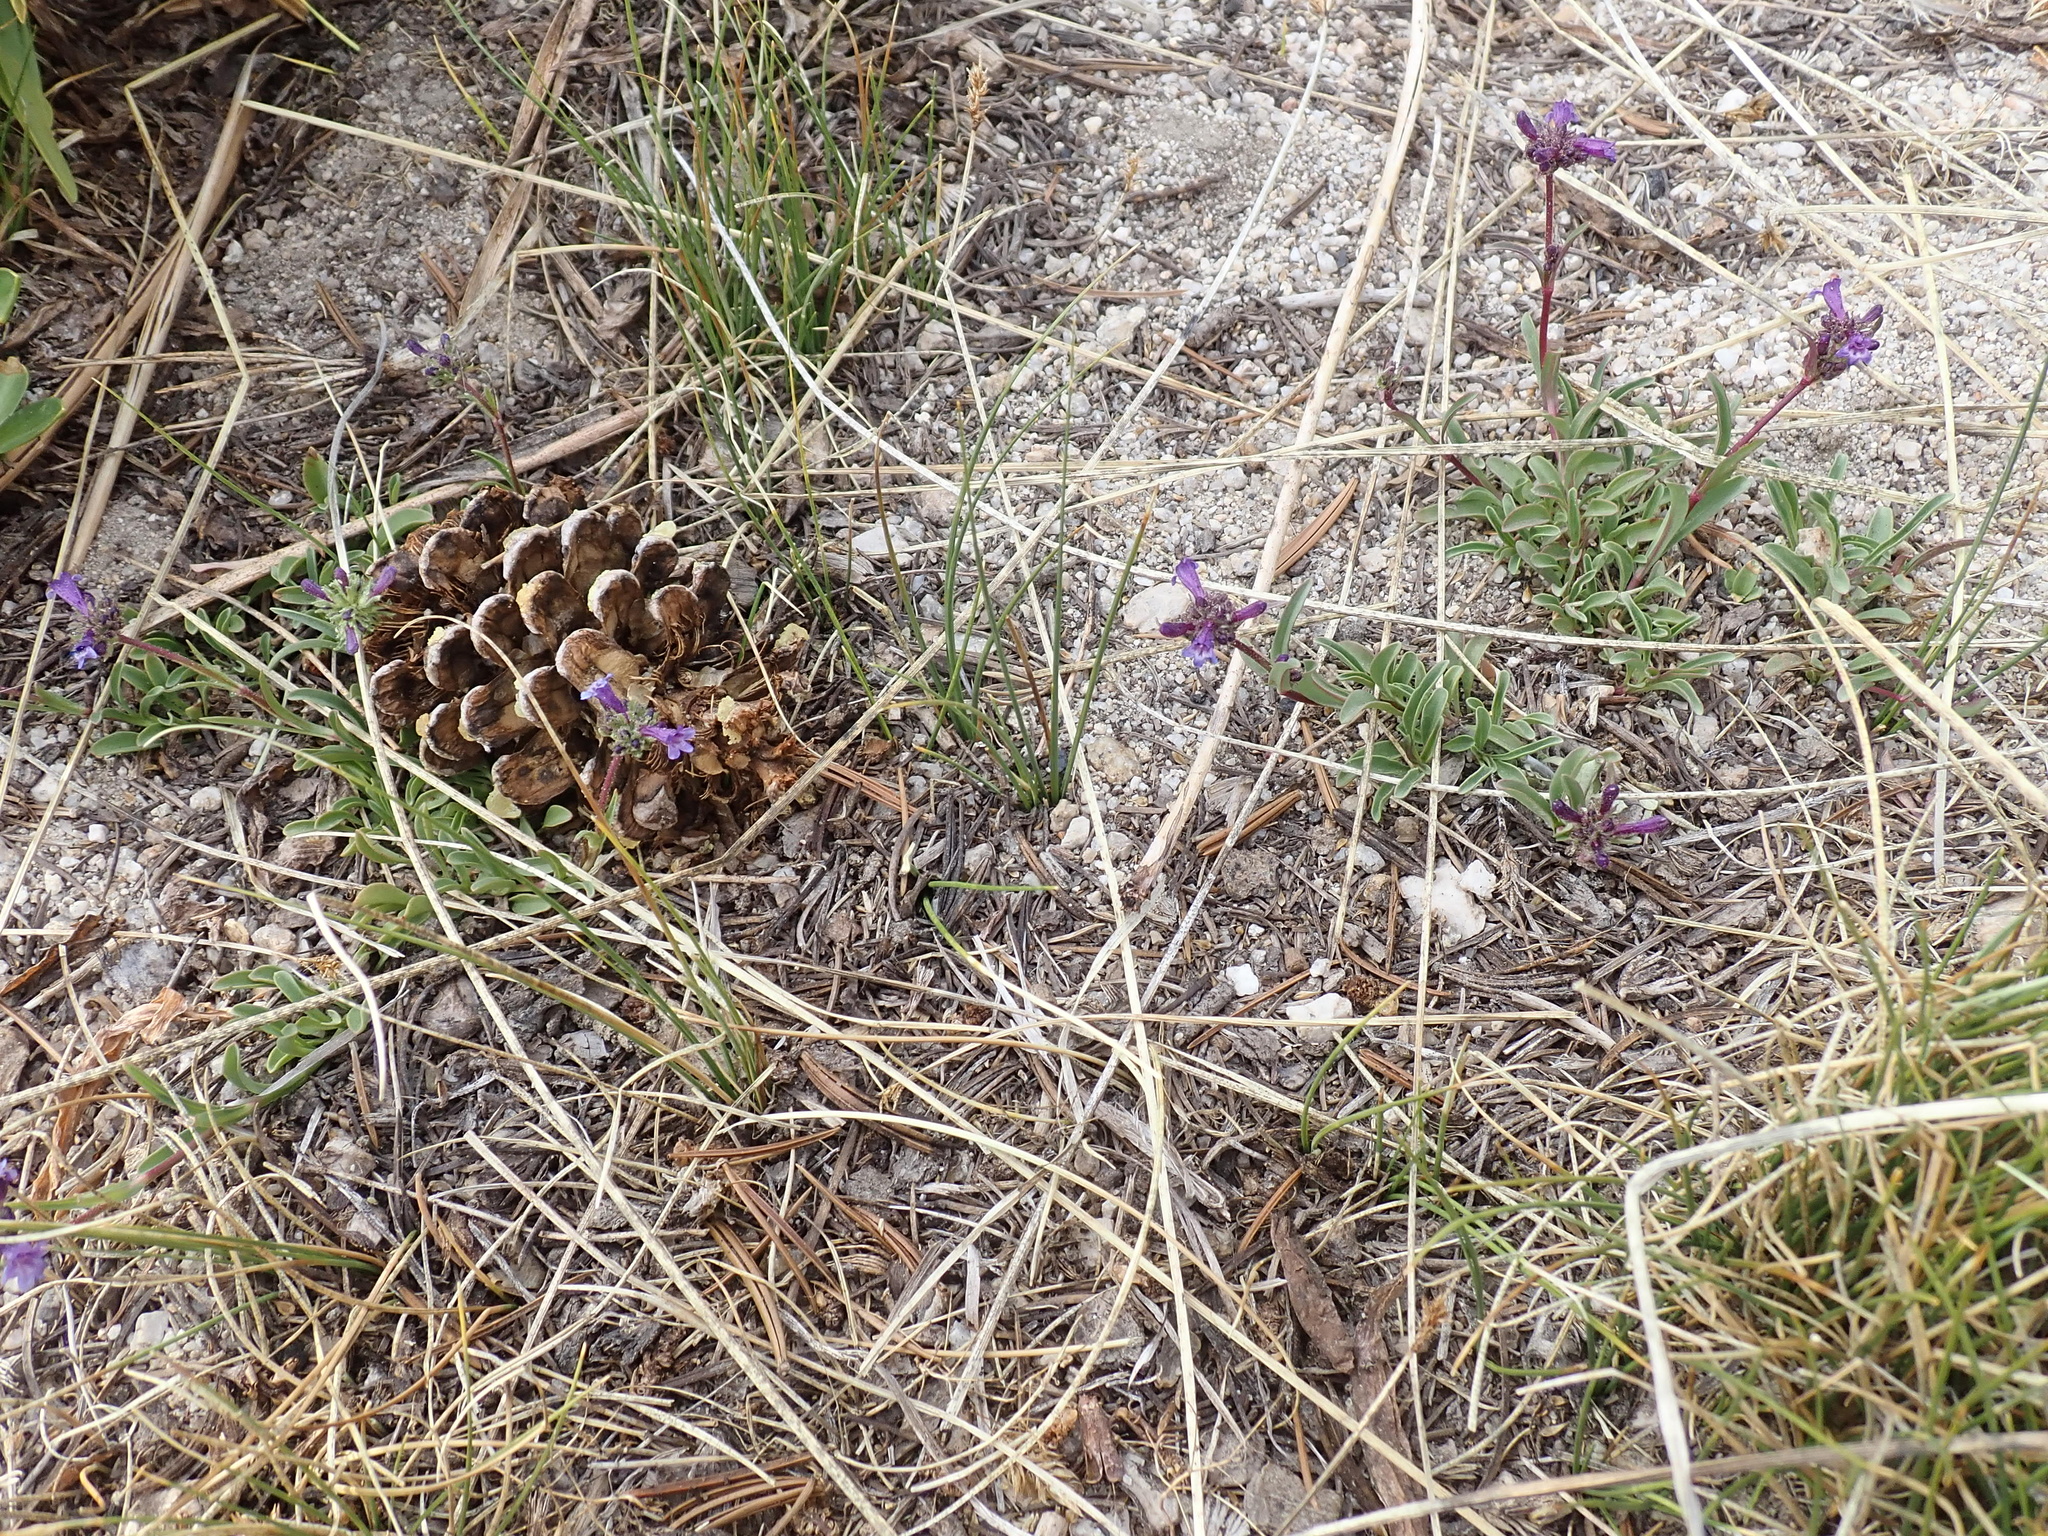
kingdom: Plantae
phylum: Tracheophyta
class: Magnoliopsida
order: Lamiales
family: Plantaginaceae
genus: Penstemon
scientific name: Penstemon heterodoxus
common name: Sierran penstemon
